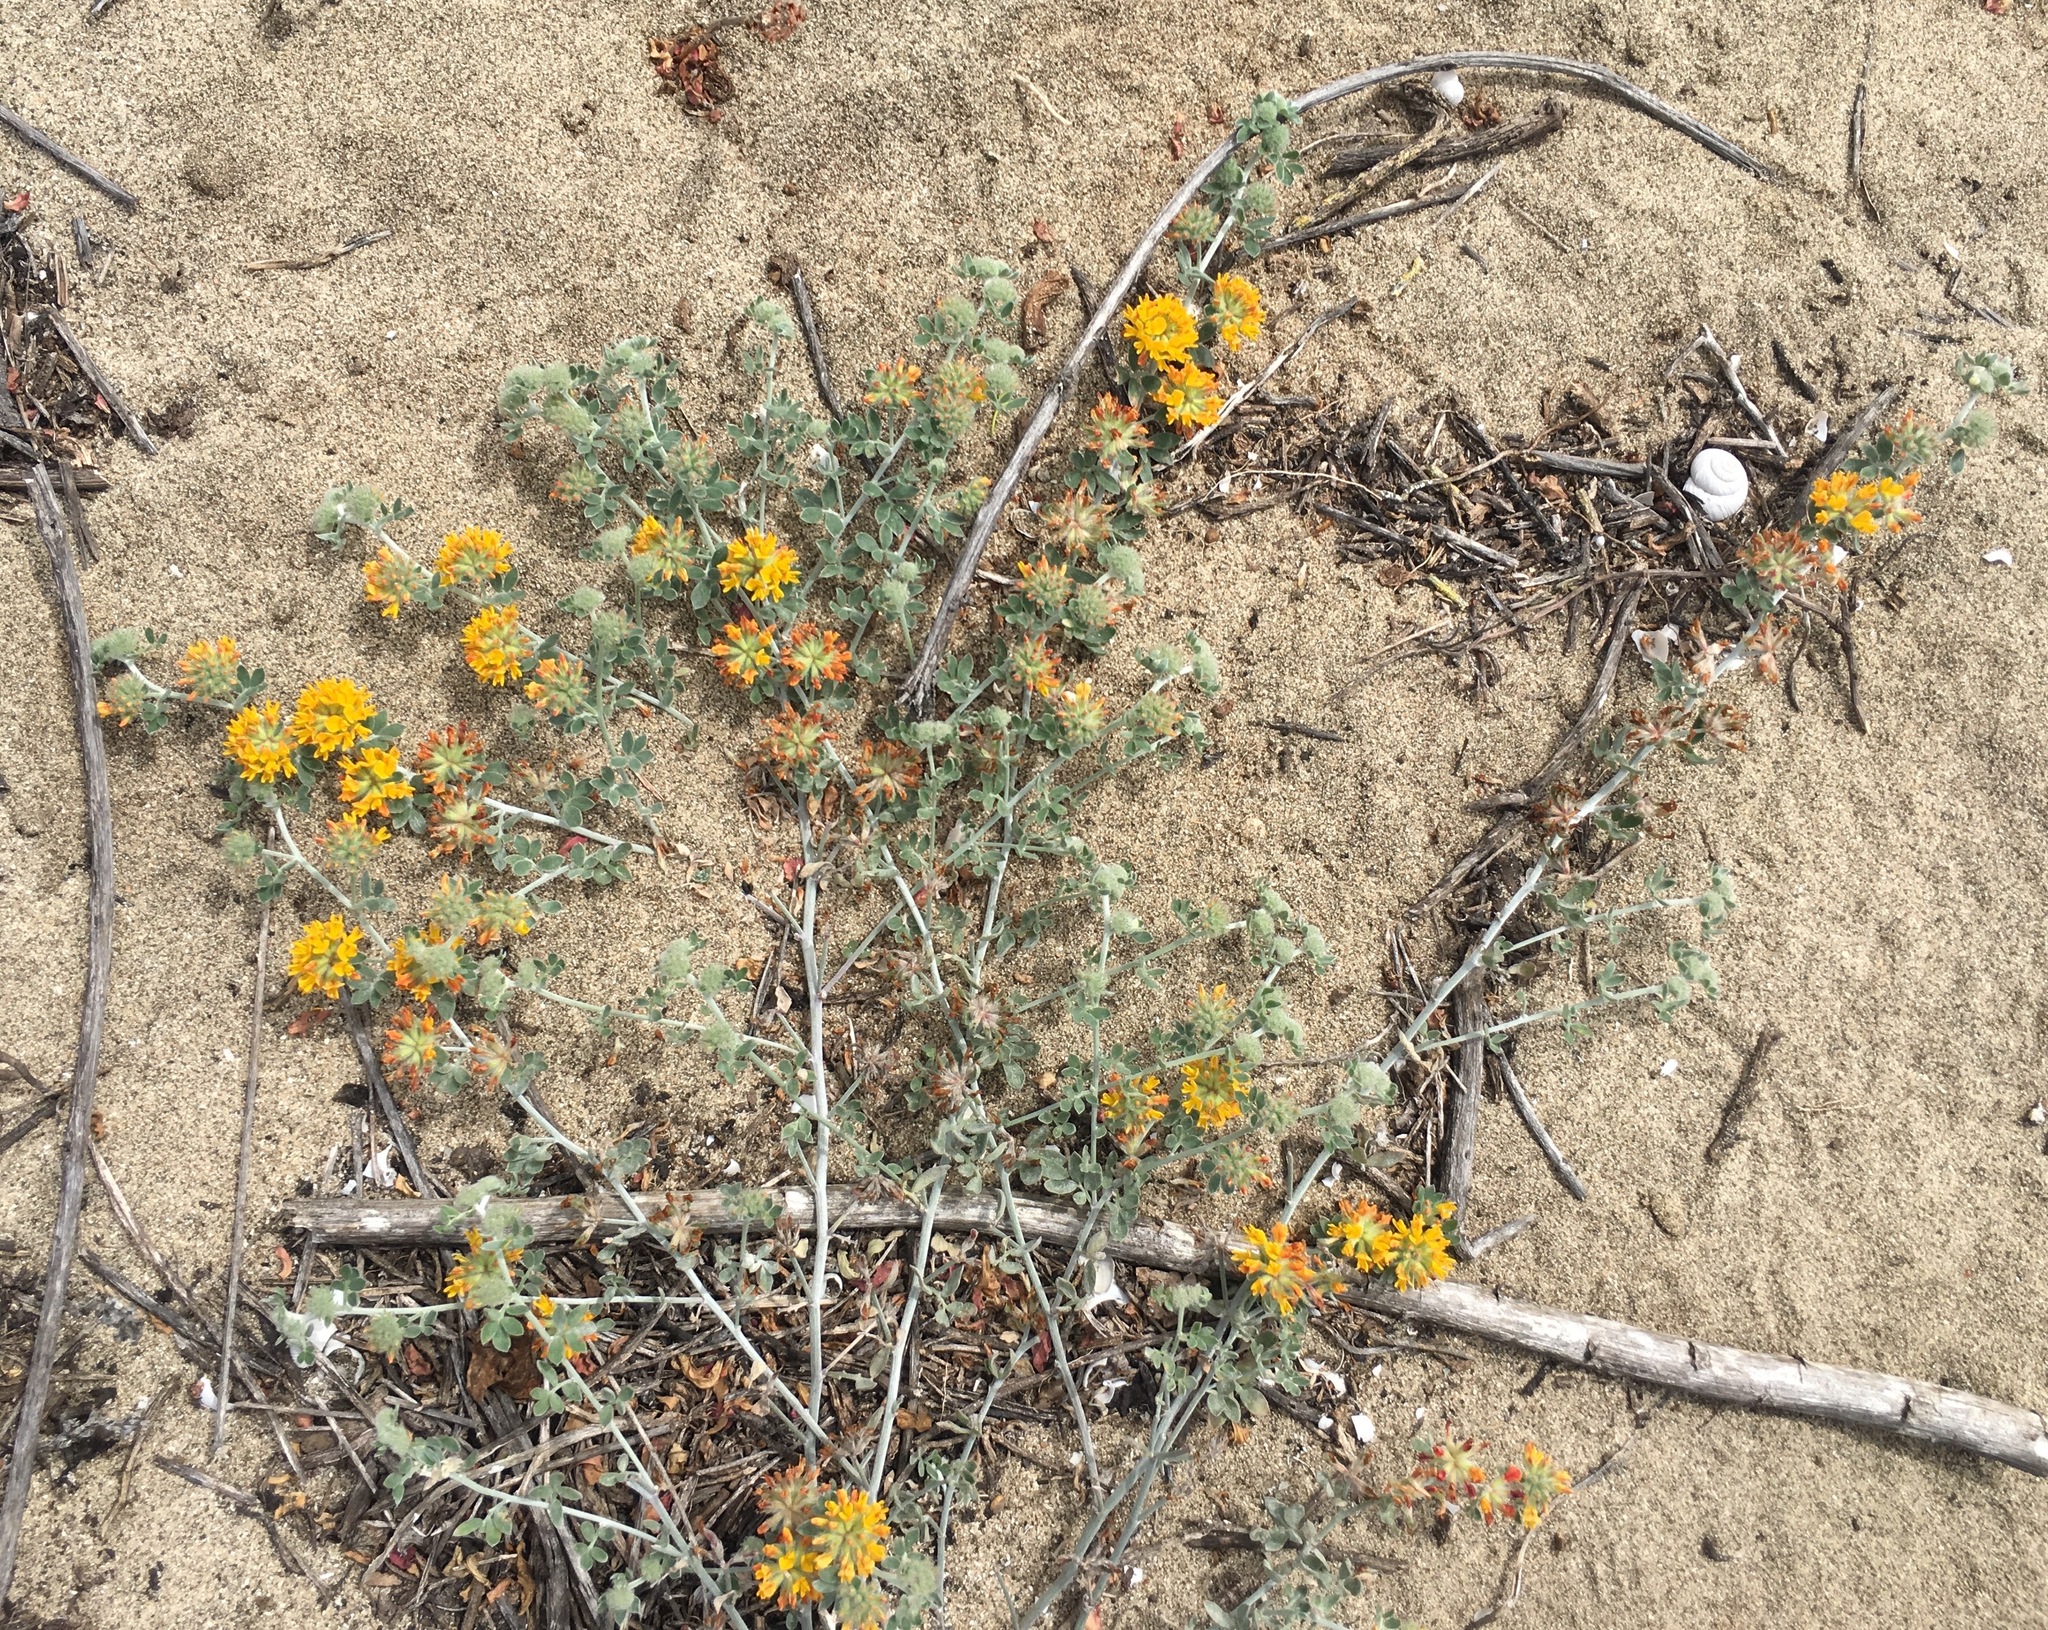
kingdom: Plantae
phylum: Tracheophyta
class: Magnoliopsida
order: Fabales
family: Fabaceae
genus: Acmispon
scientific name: Acmispon argophyllus
